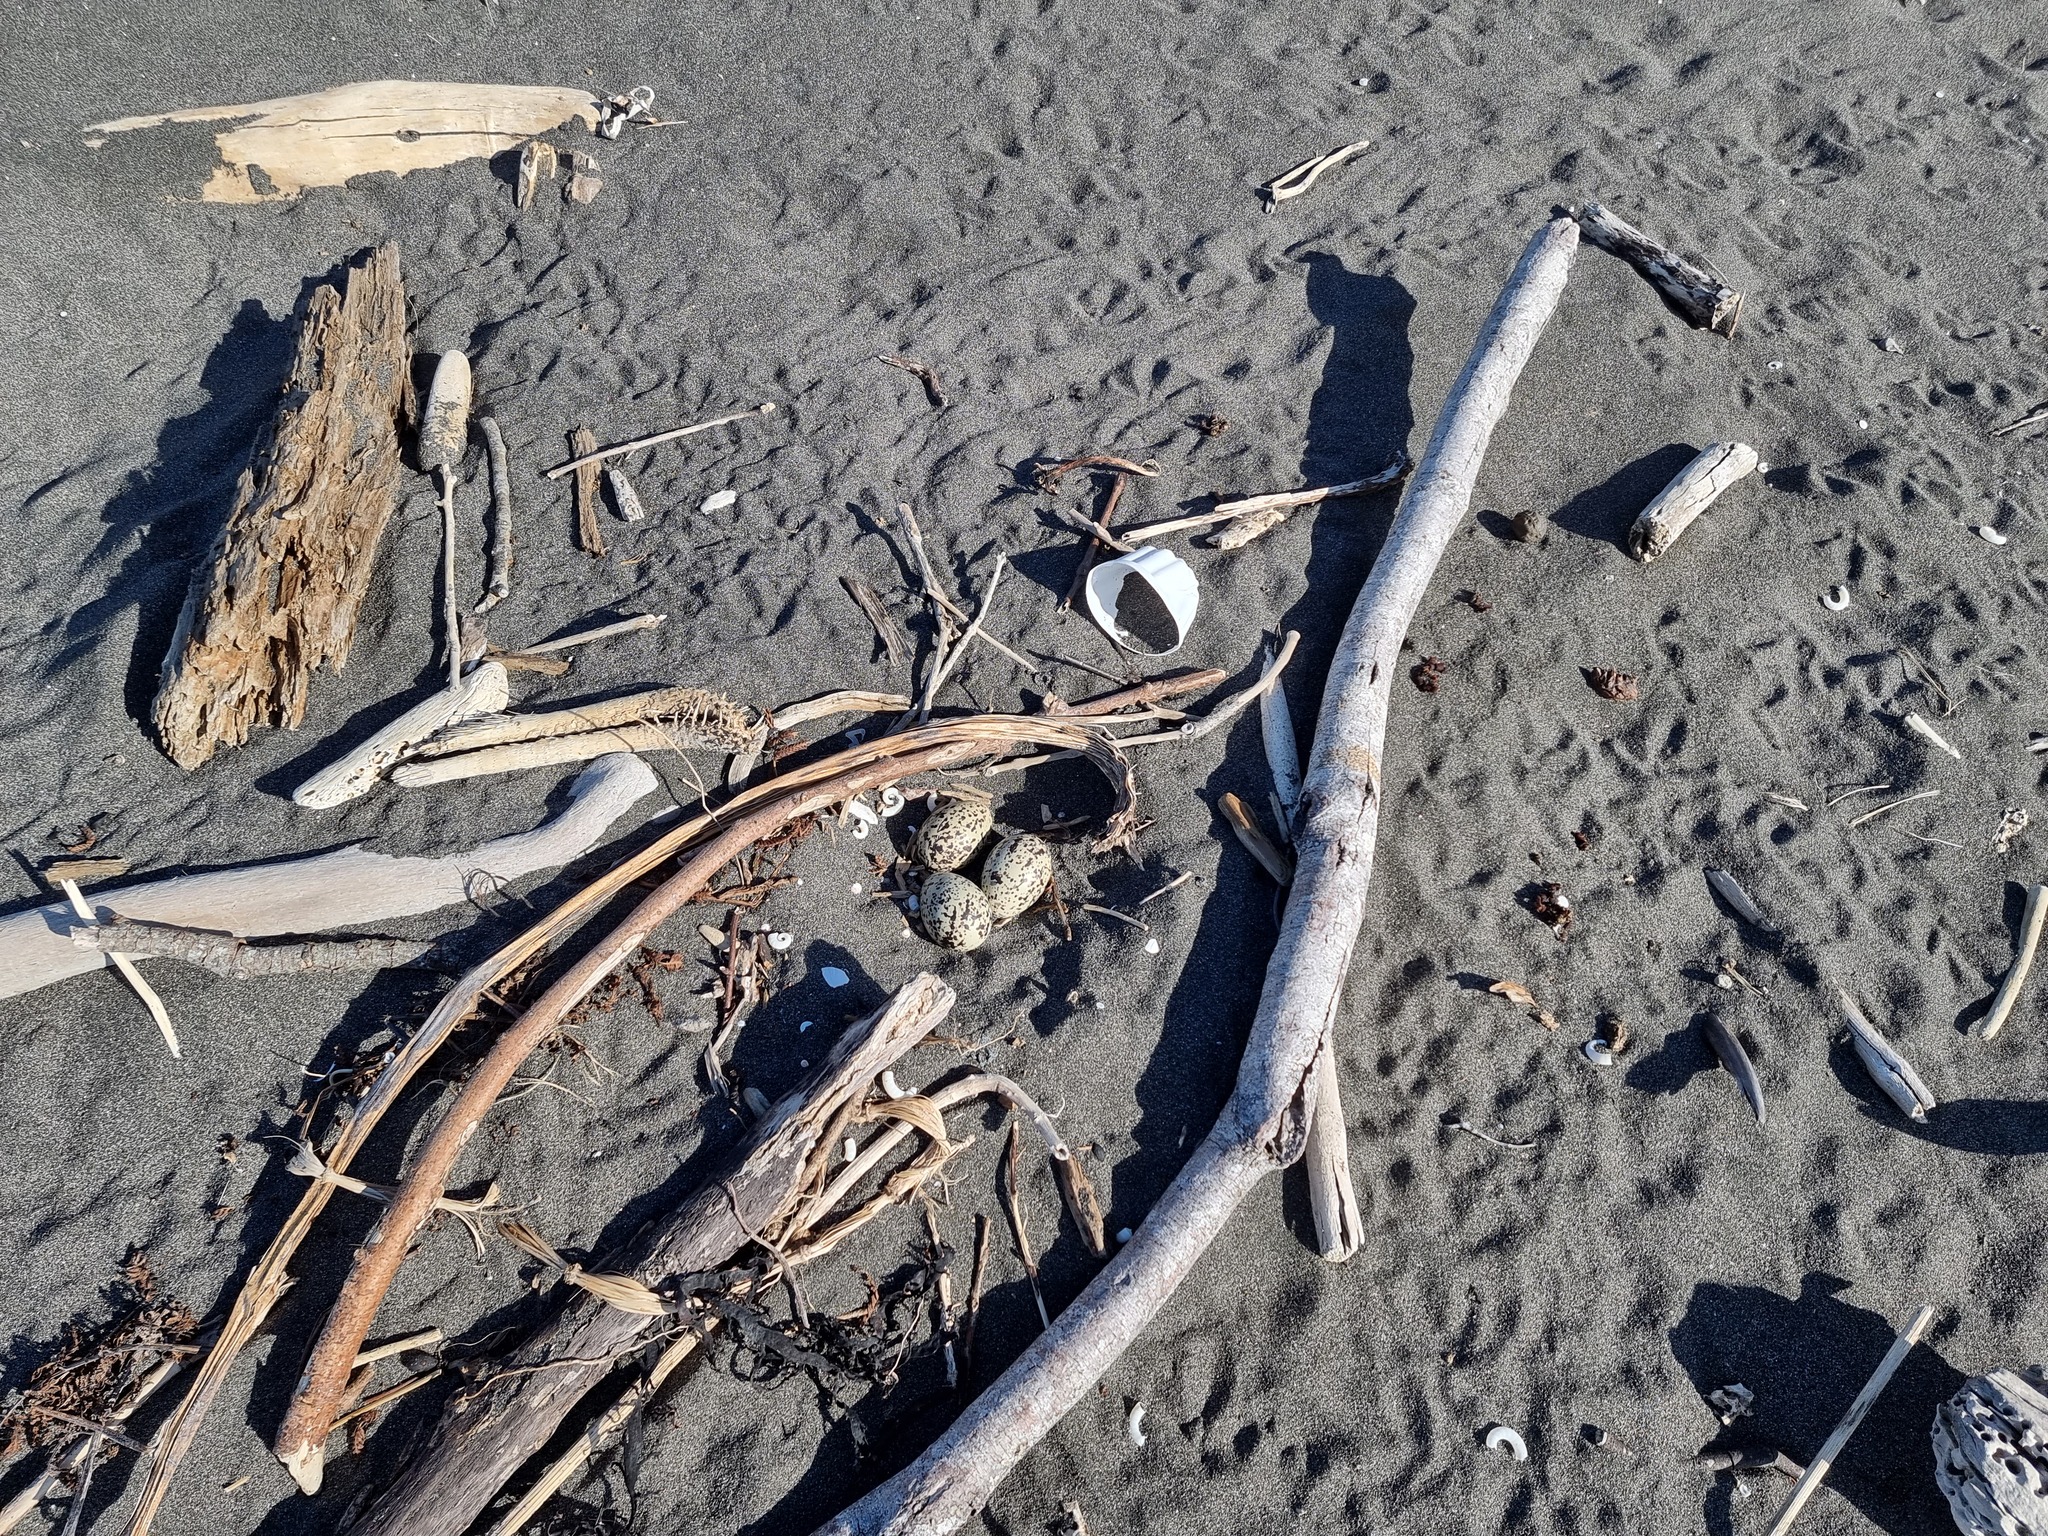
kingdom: Animalia
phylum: Chordata
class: Aves
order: Charadriiformes
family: Haematopodidae
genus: Haematopus
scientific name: Haematopus unicolor
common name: Variable oystercatcher
